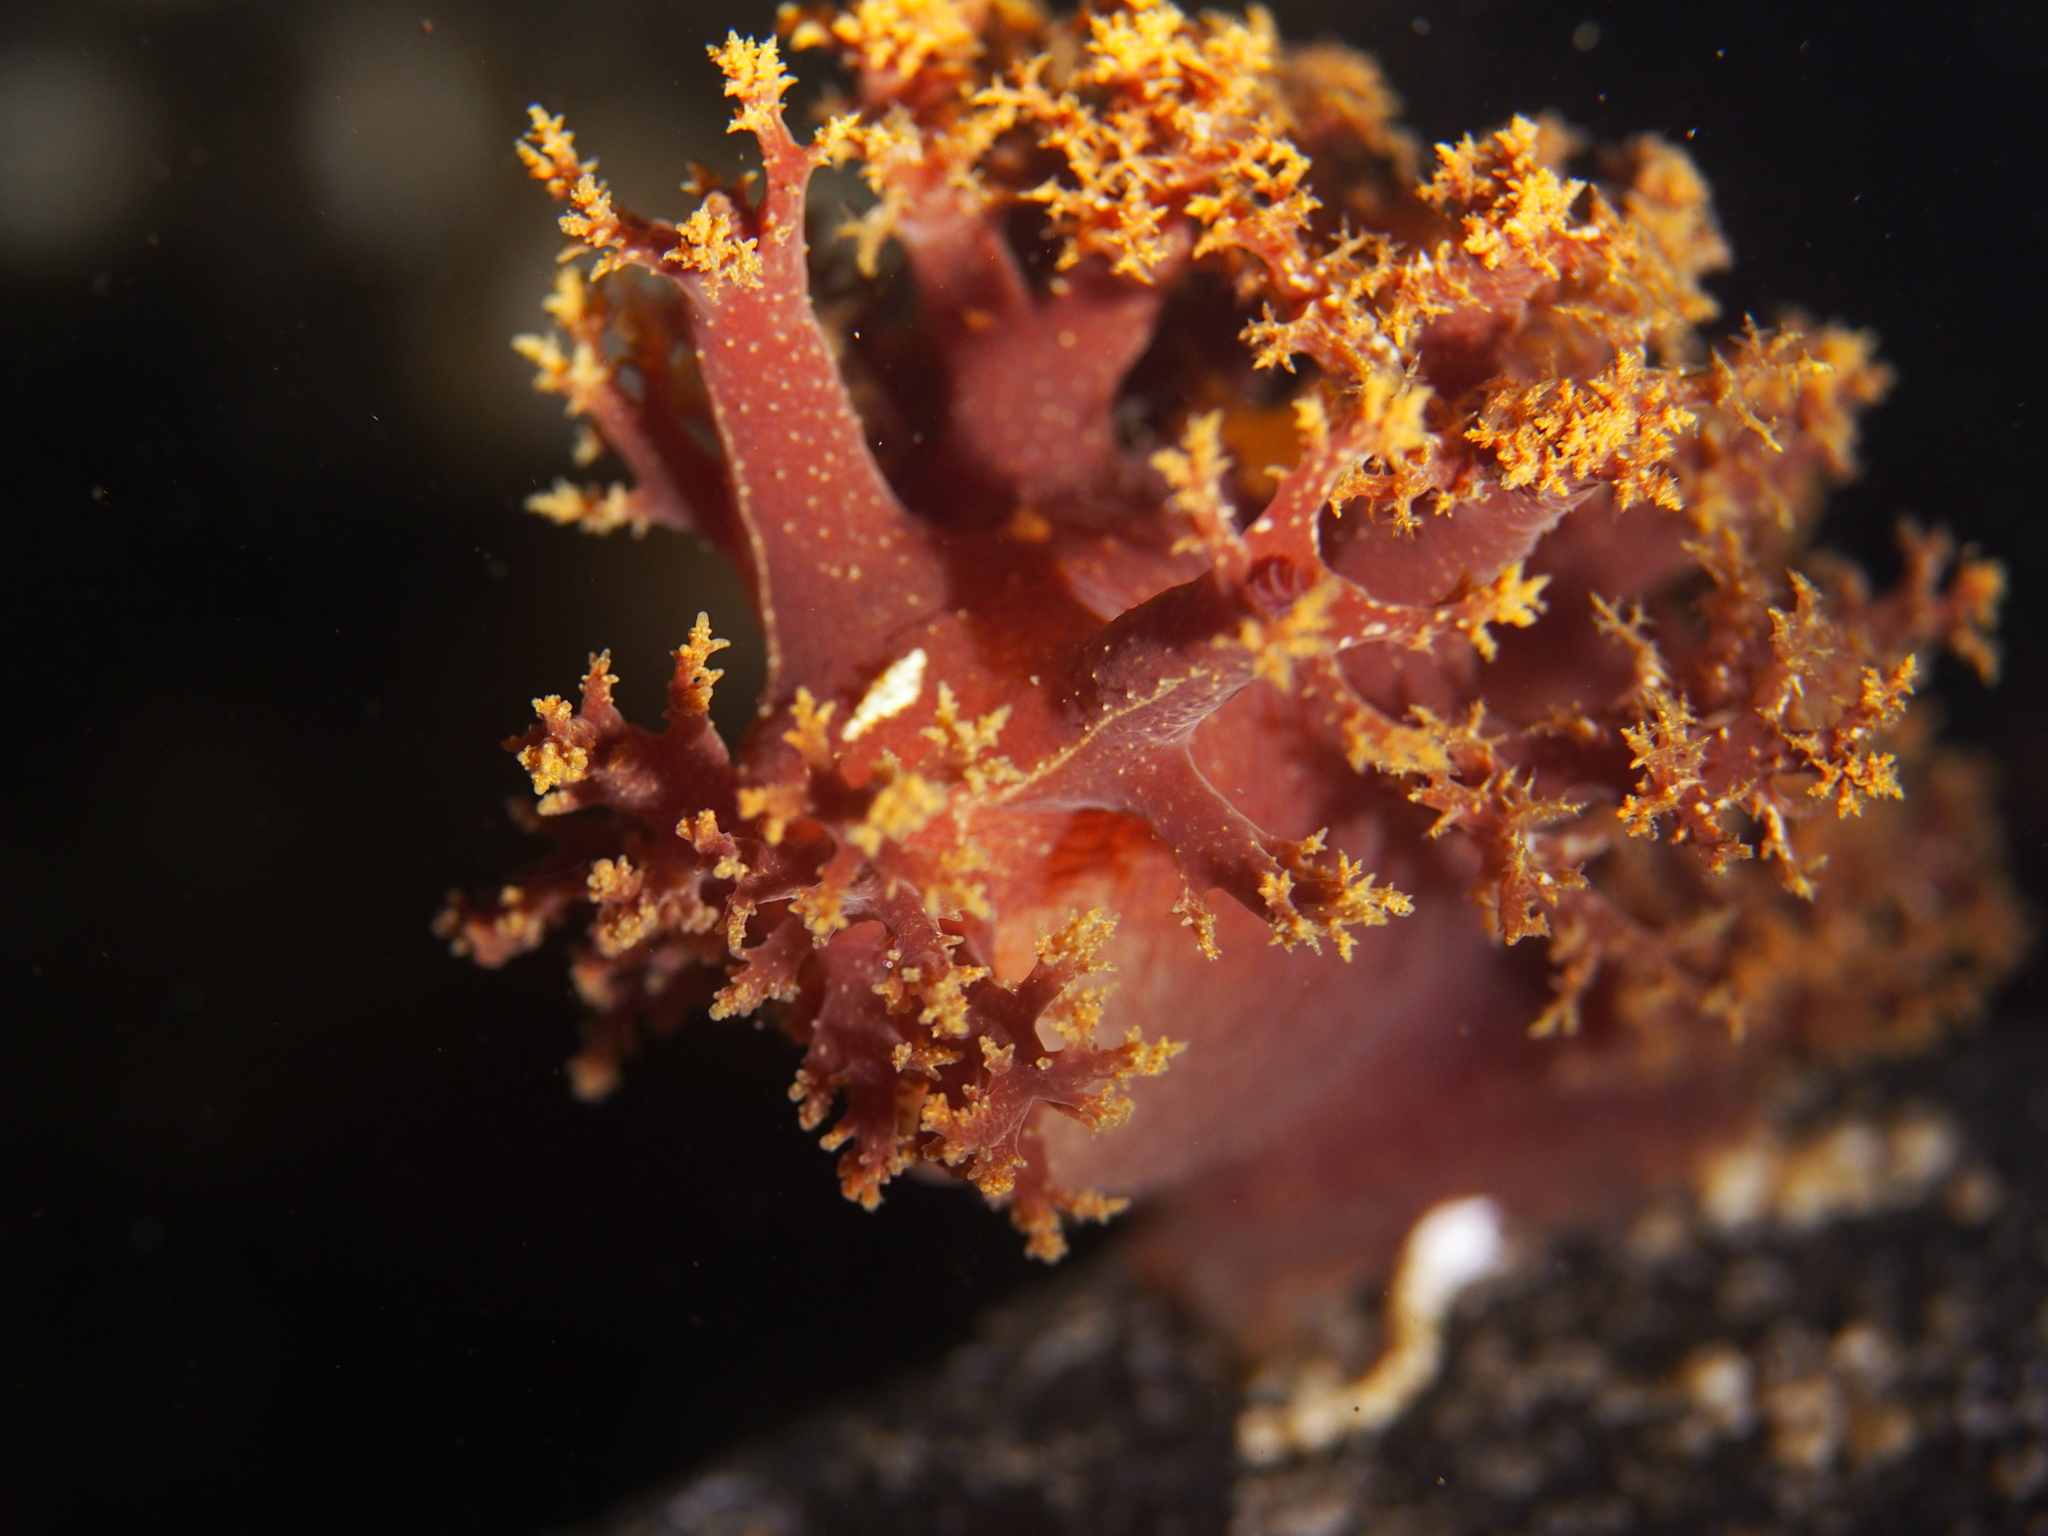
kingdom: Animalia
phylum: Mollusca
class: Gastropoda
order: Nudibranchia
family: Dendronotidae
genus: Dendronotus
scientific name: Dendronotus lacteus
